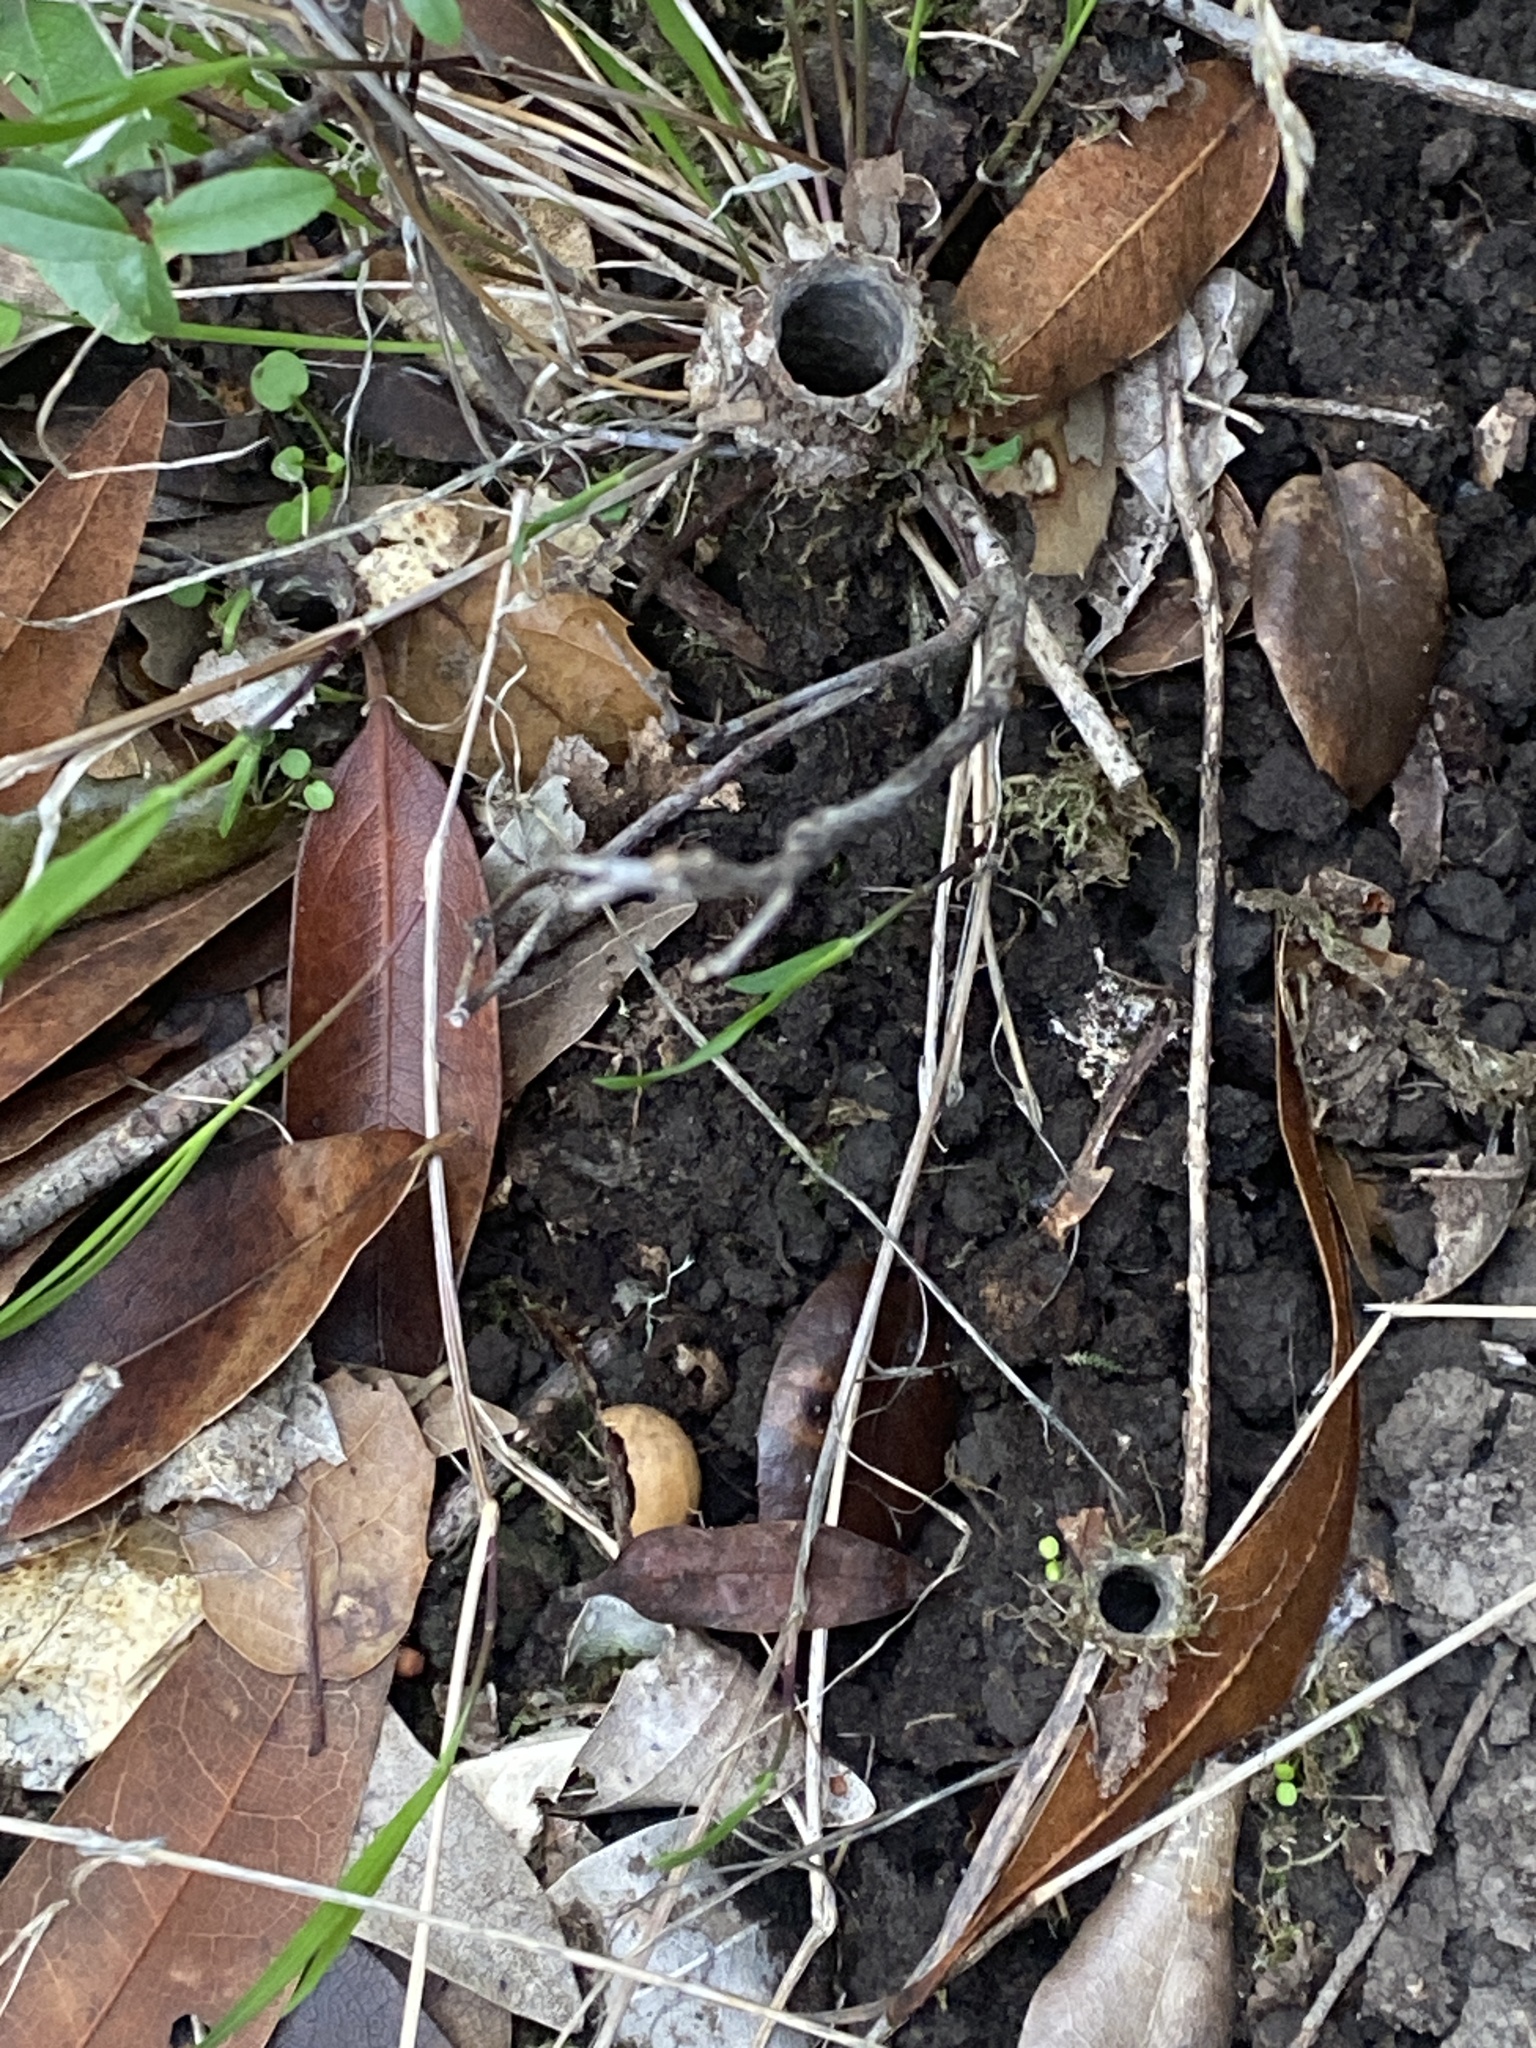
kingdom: Animalia
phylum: Arthropoda
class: Arachnida
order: Araneae
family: Antrodiaetidae
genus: Atypoides
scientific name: Atypoides riversi
